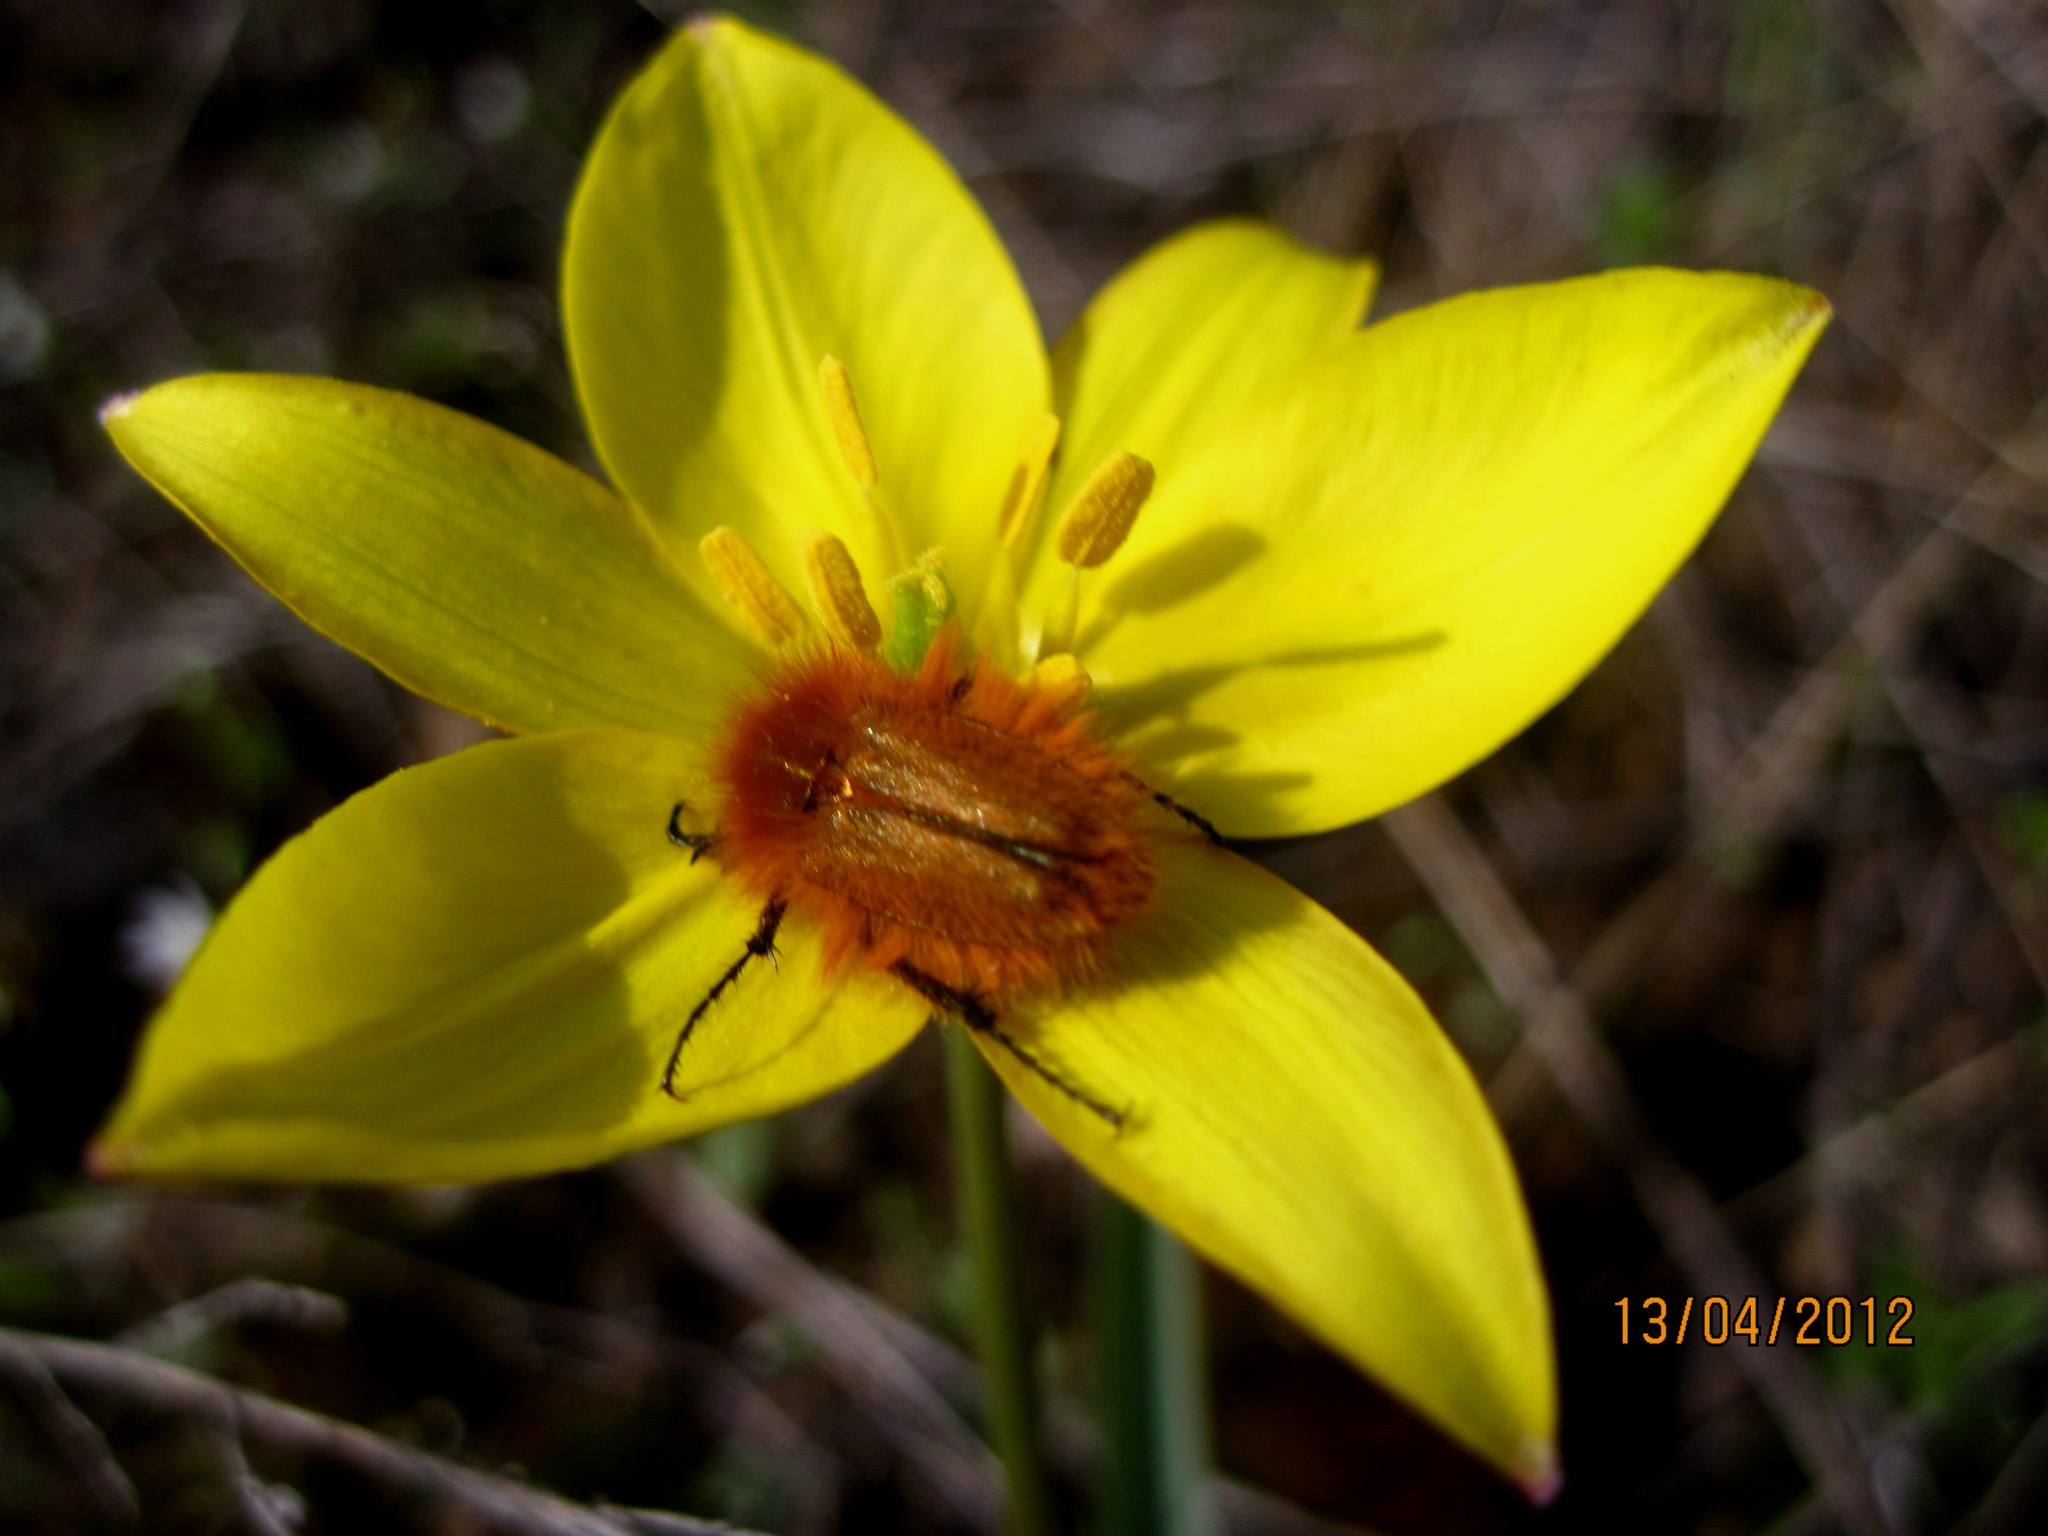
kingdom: Animalia
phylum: Arthropoda
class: Insecta
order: Coleoptera
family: Glaphyridae
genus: Pygopleurus
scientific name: Pygopleurus vulpes
